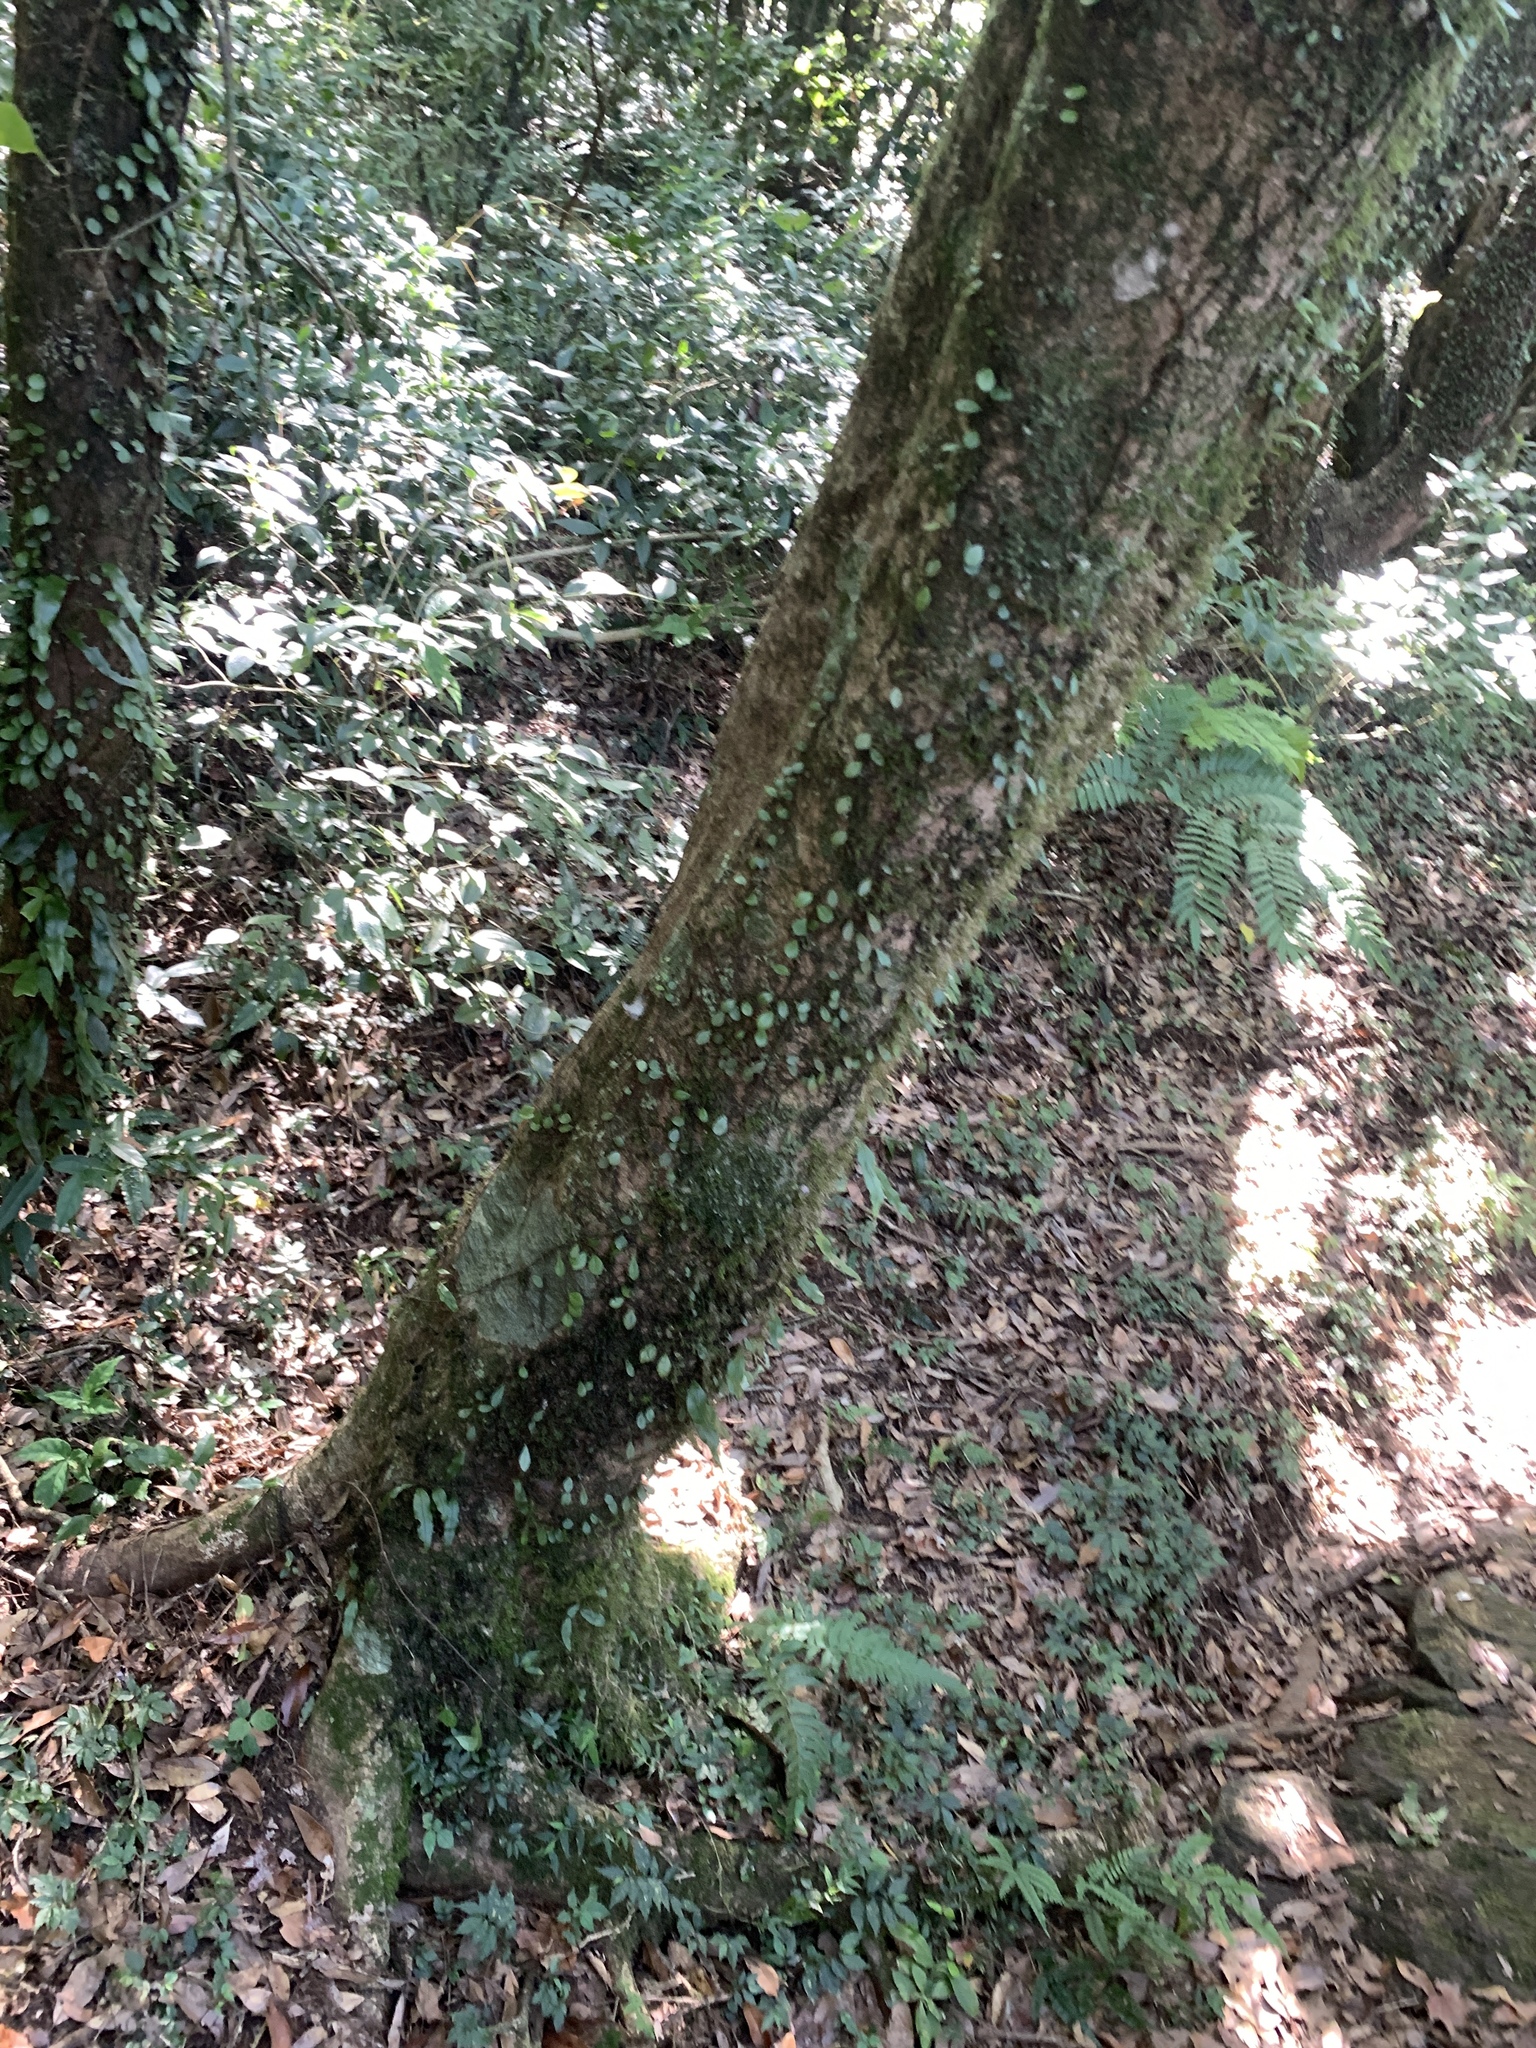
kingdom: Plantae
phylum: Tracheophyta
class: Magnoliopsida
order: Sapindales
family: Sapindaceae
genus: Acer
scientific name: Acer serrulatum
